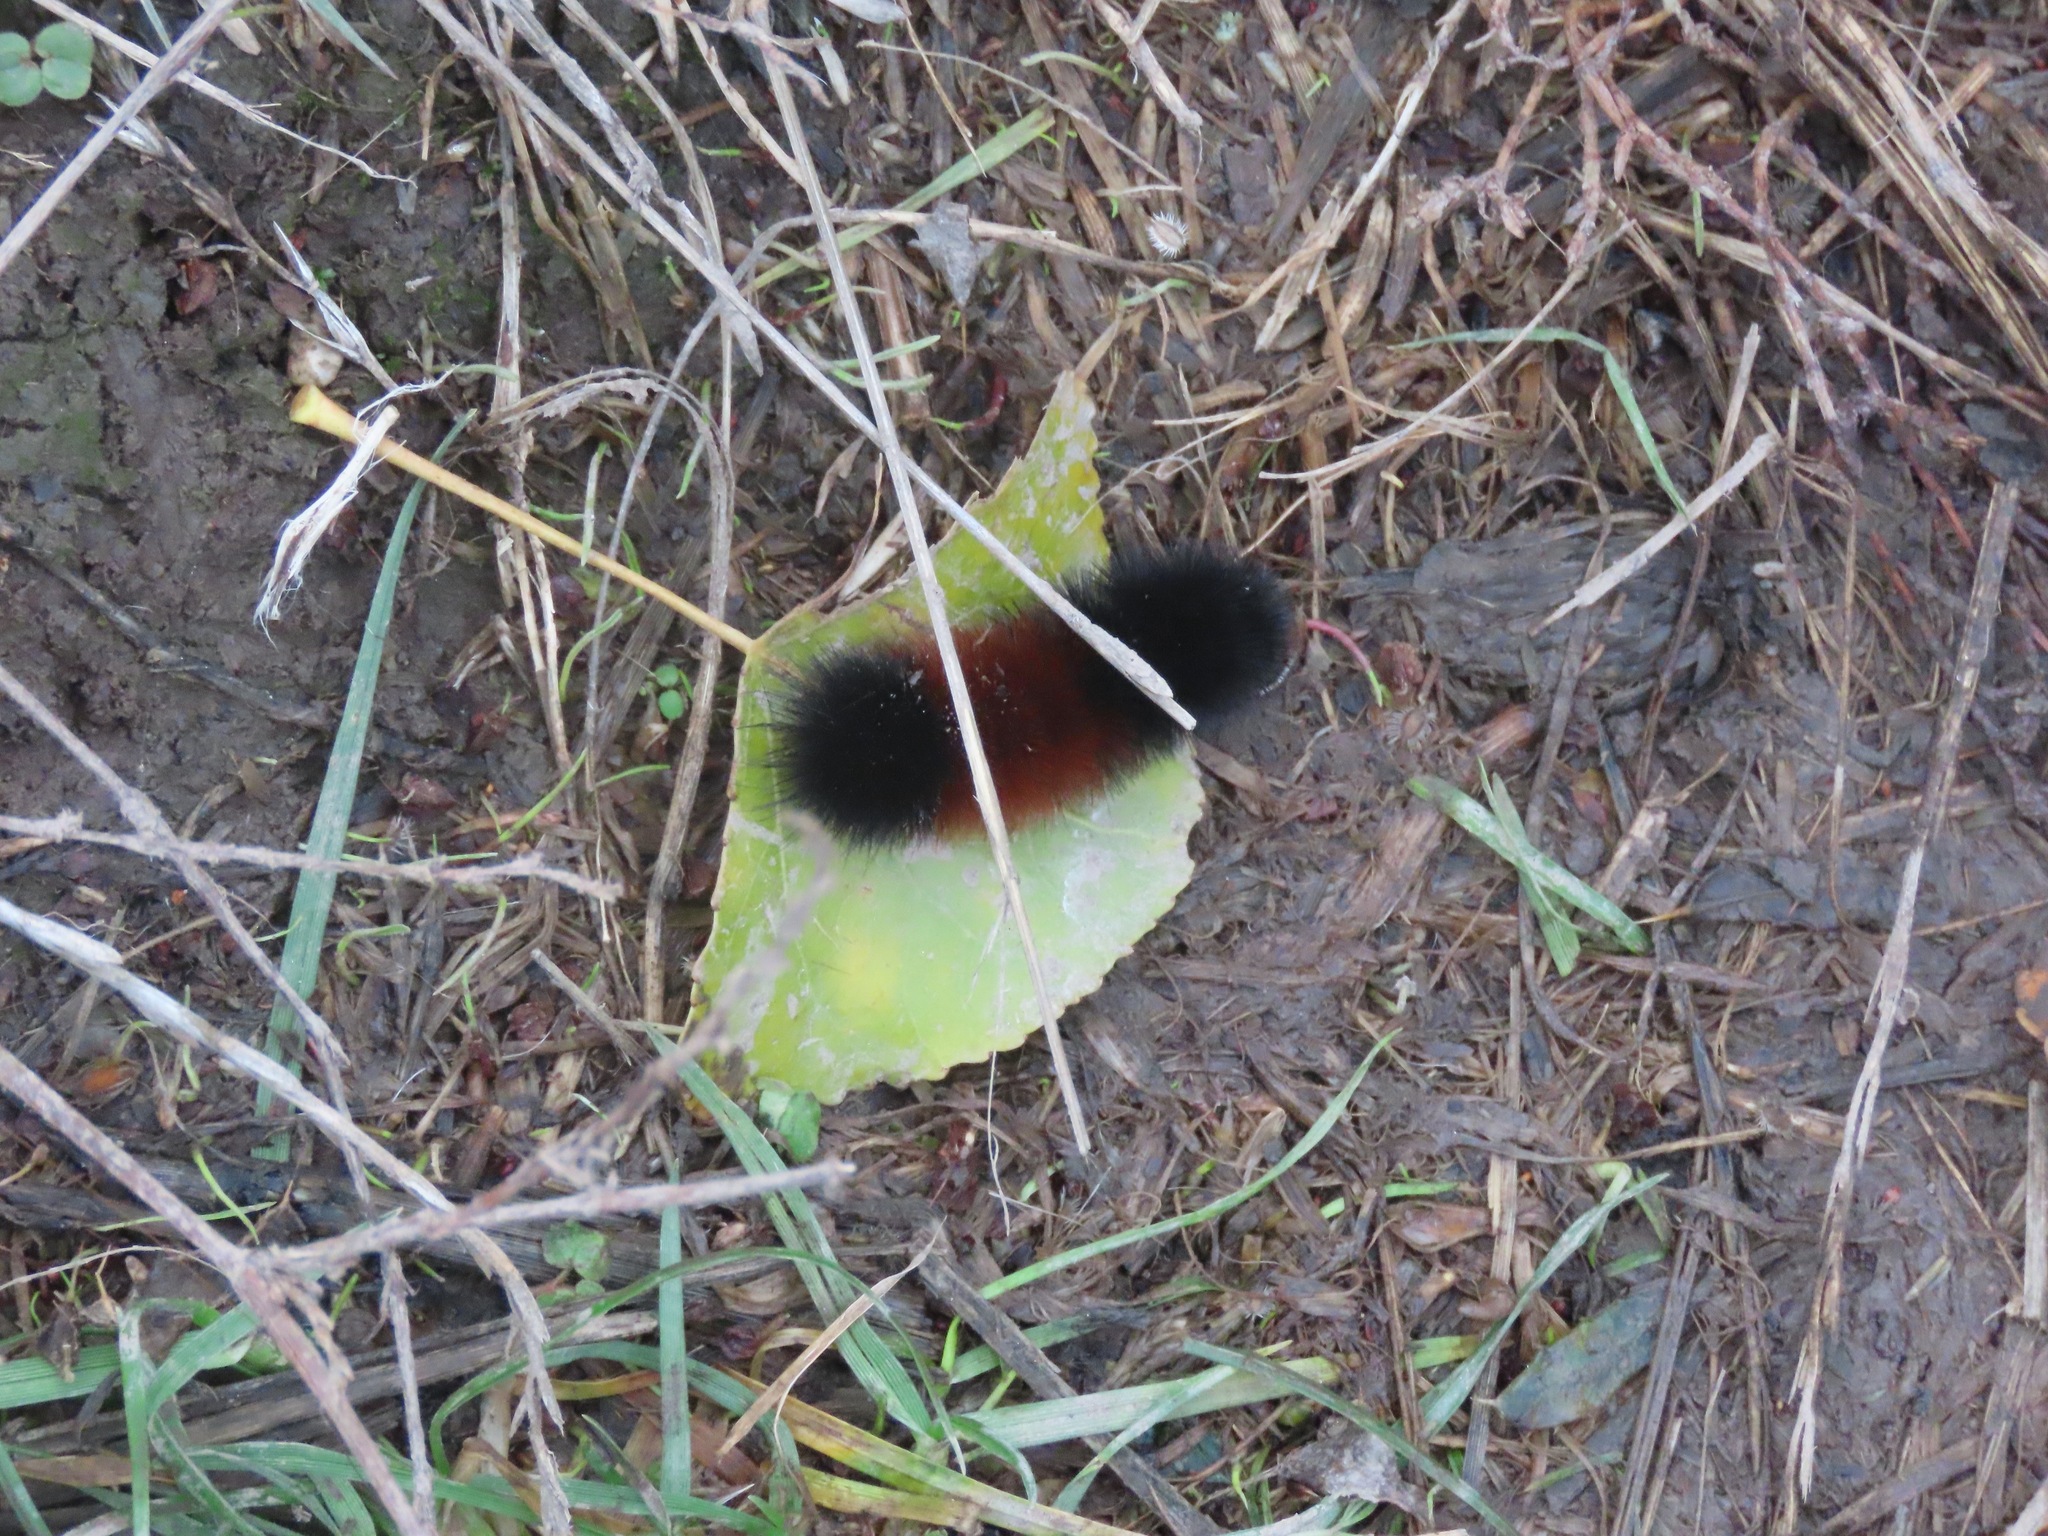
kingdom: Animalia
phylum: Arthropoda
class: Insecta
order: Lepidoptera
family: Erebidae
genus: Pyrrharctia
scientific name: Pyrrharctia isabella
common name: Isabella tiger moth
